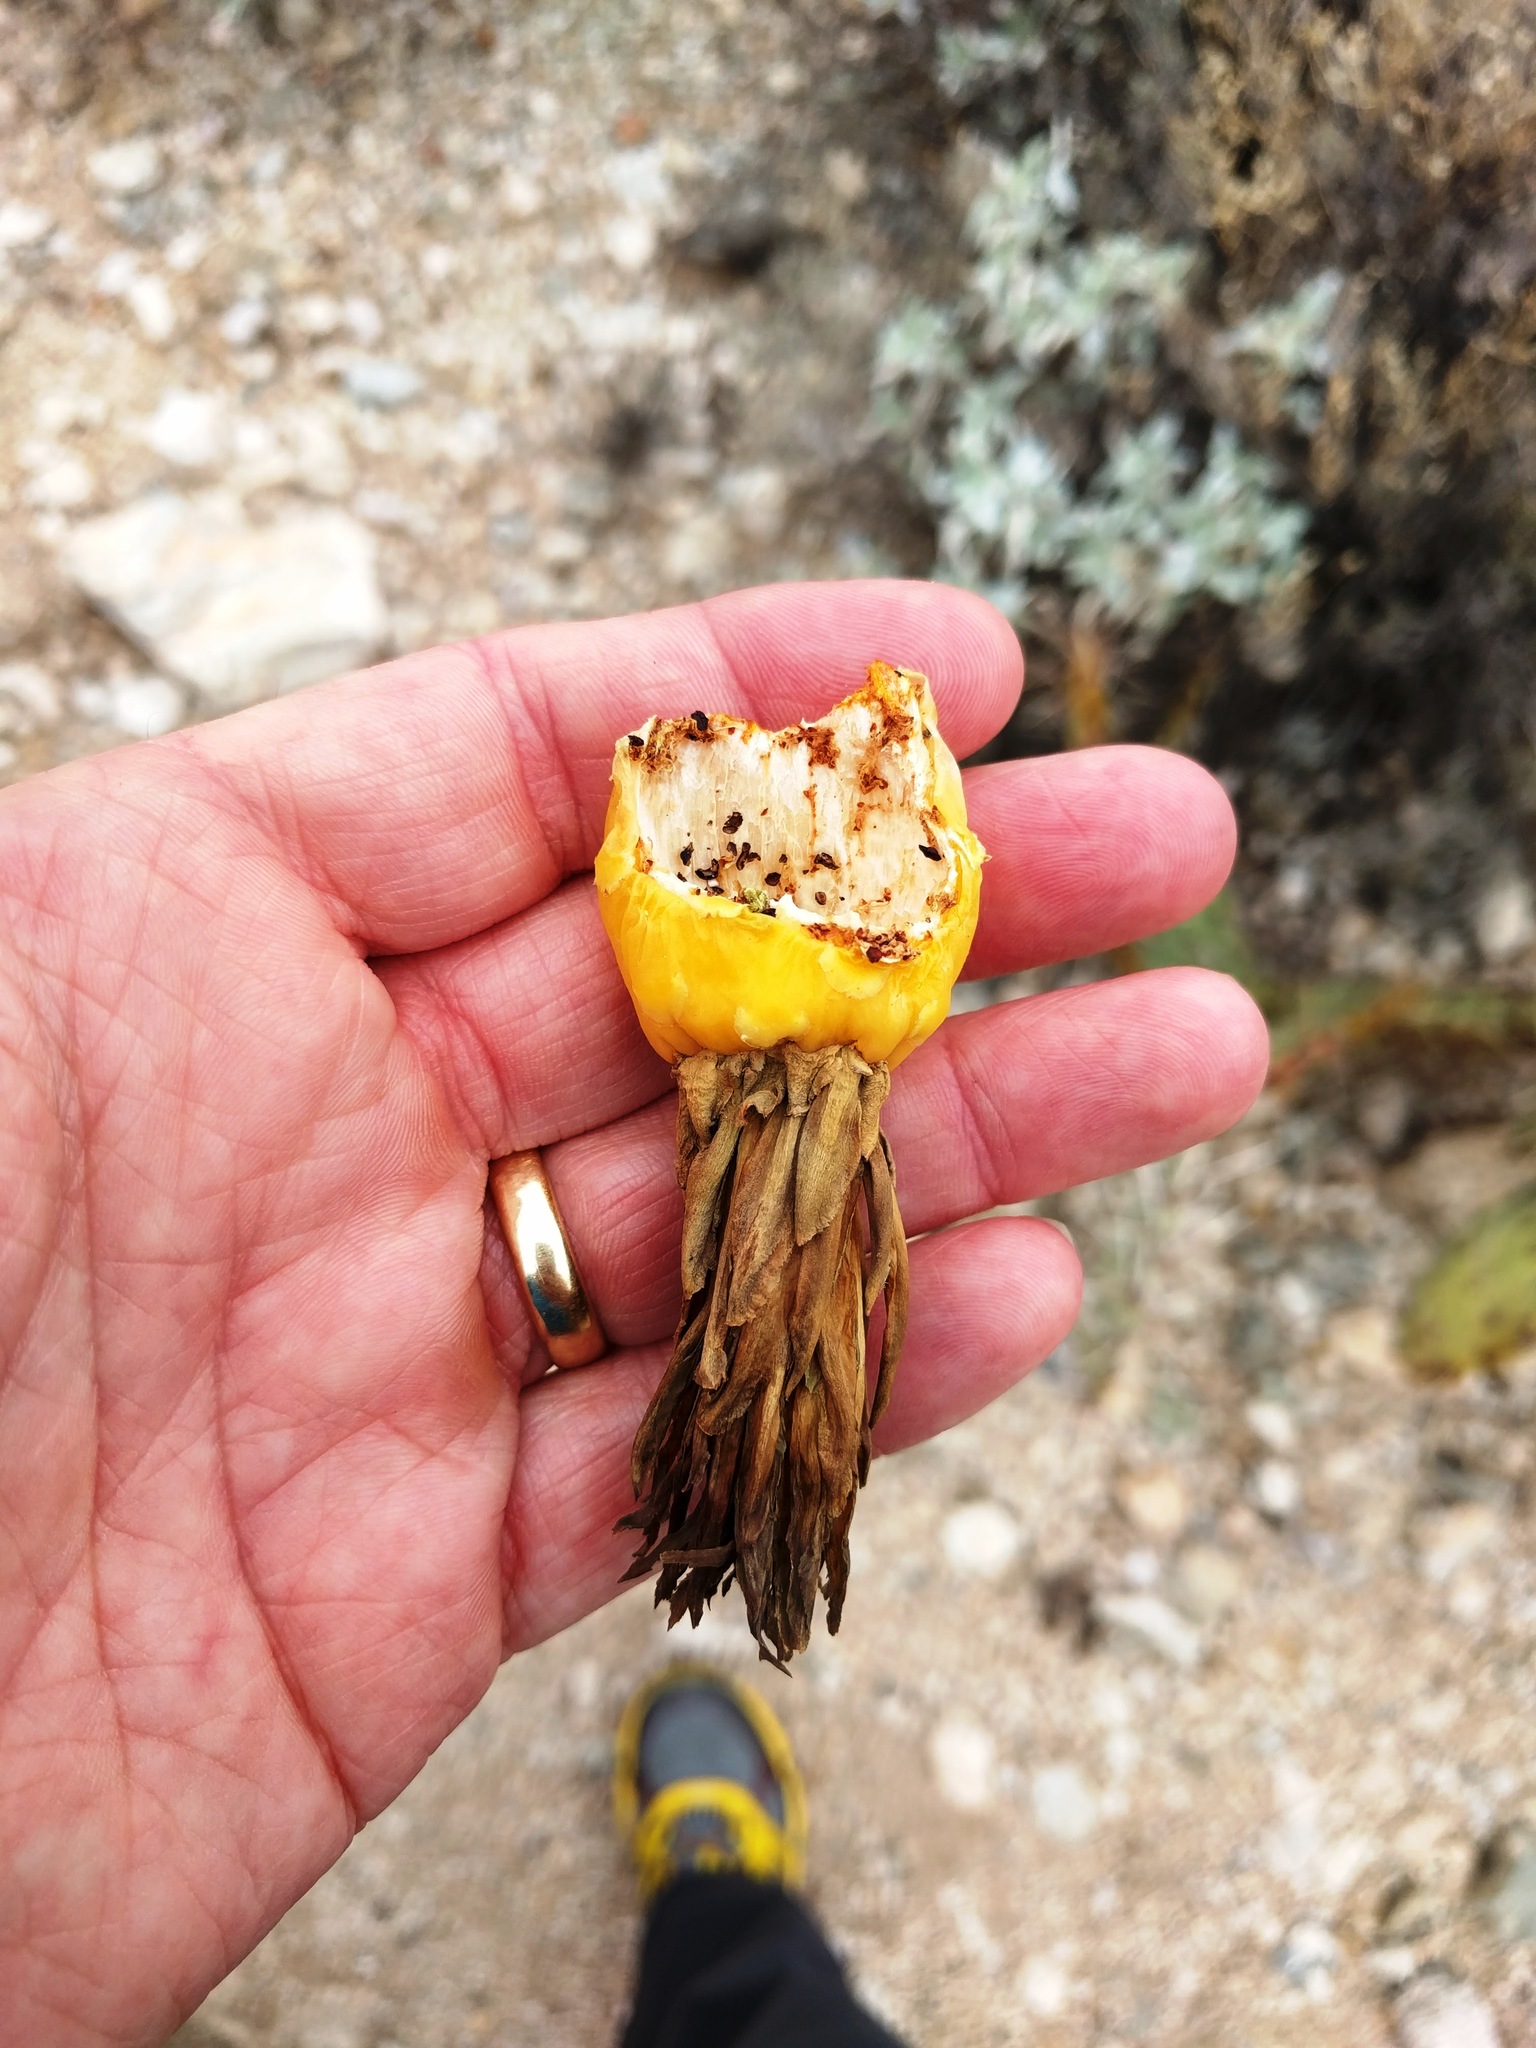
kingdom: Plantae
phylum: Tracheophyta
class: Magnoliopsida
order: Caryophyllales
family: Cactaceae
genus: Ferocactus
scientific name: Ferocactus wislizeni
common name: Candy barrel cactus
